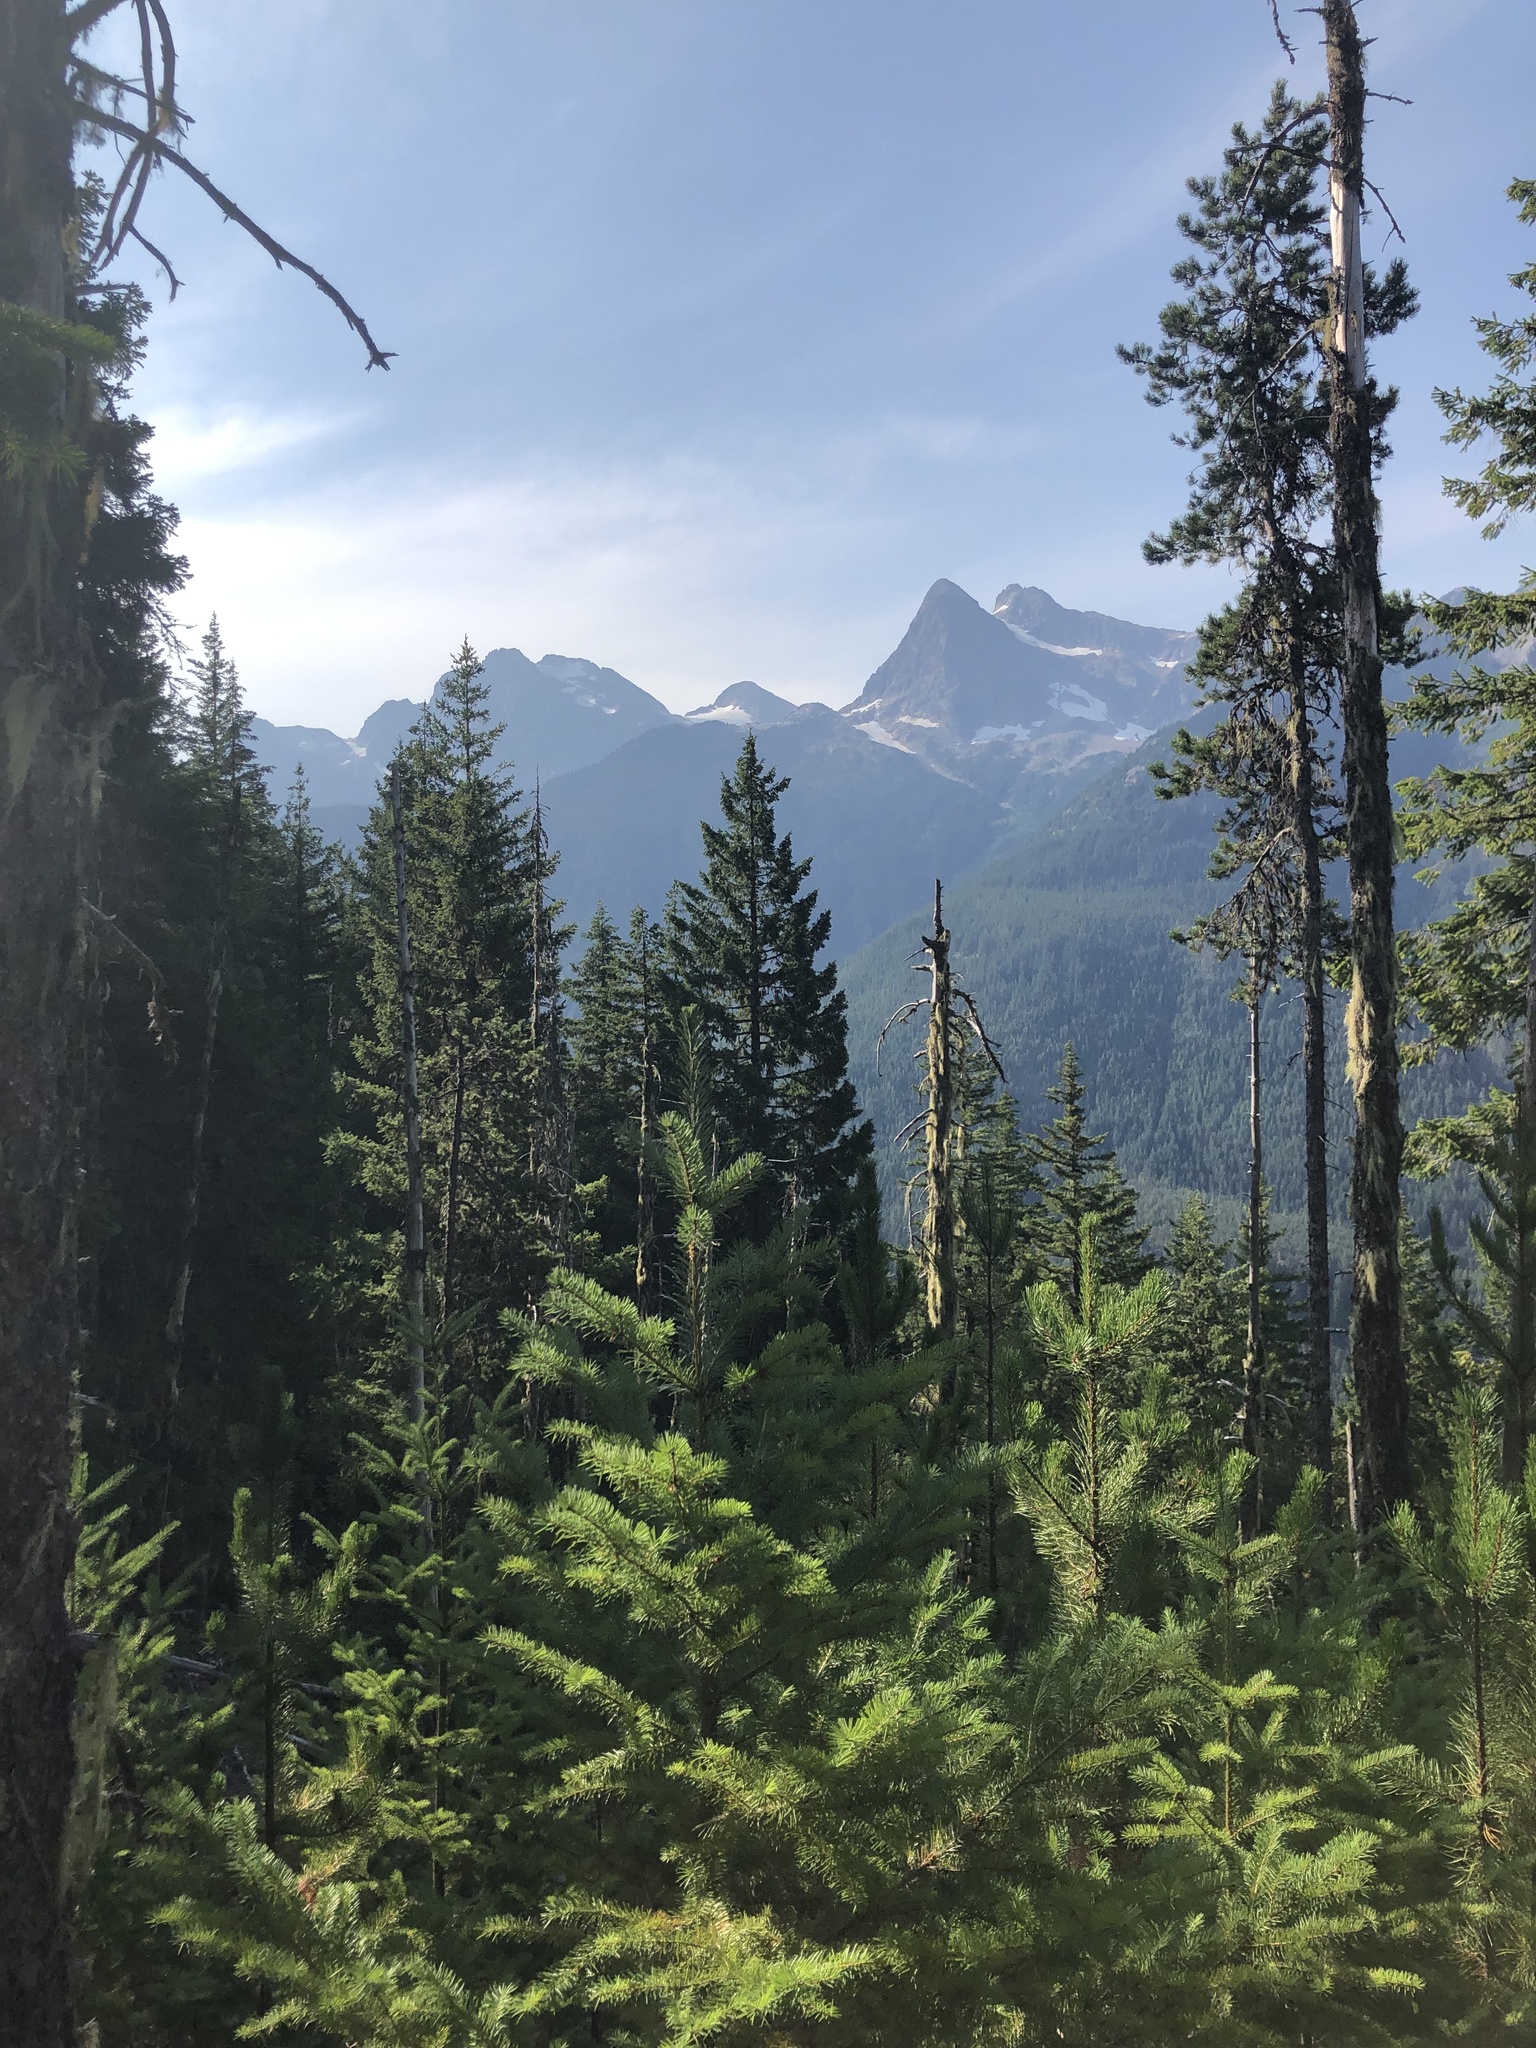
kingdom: Plantae
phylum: Tracheophyta
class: Pinopsida
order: Pinales
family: Pinaceae
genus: Pseudotsuga
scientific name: Pseudotsuga menziesii
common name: Douglas fir
